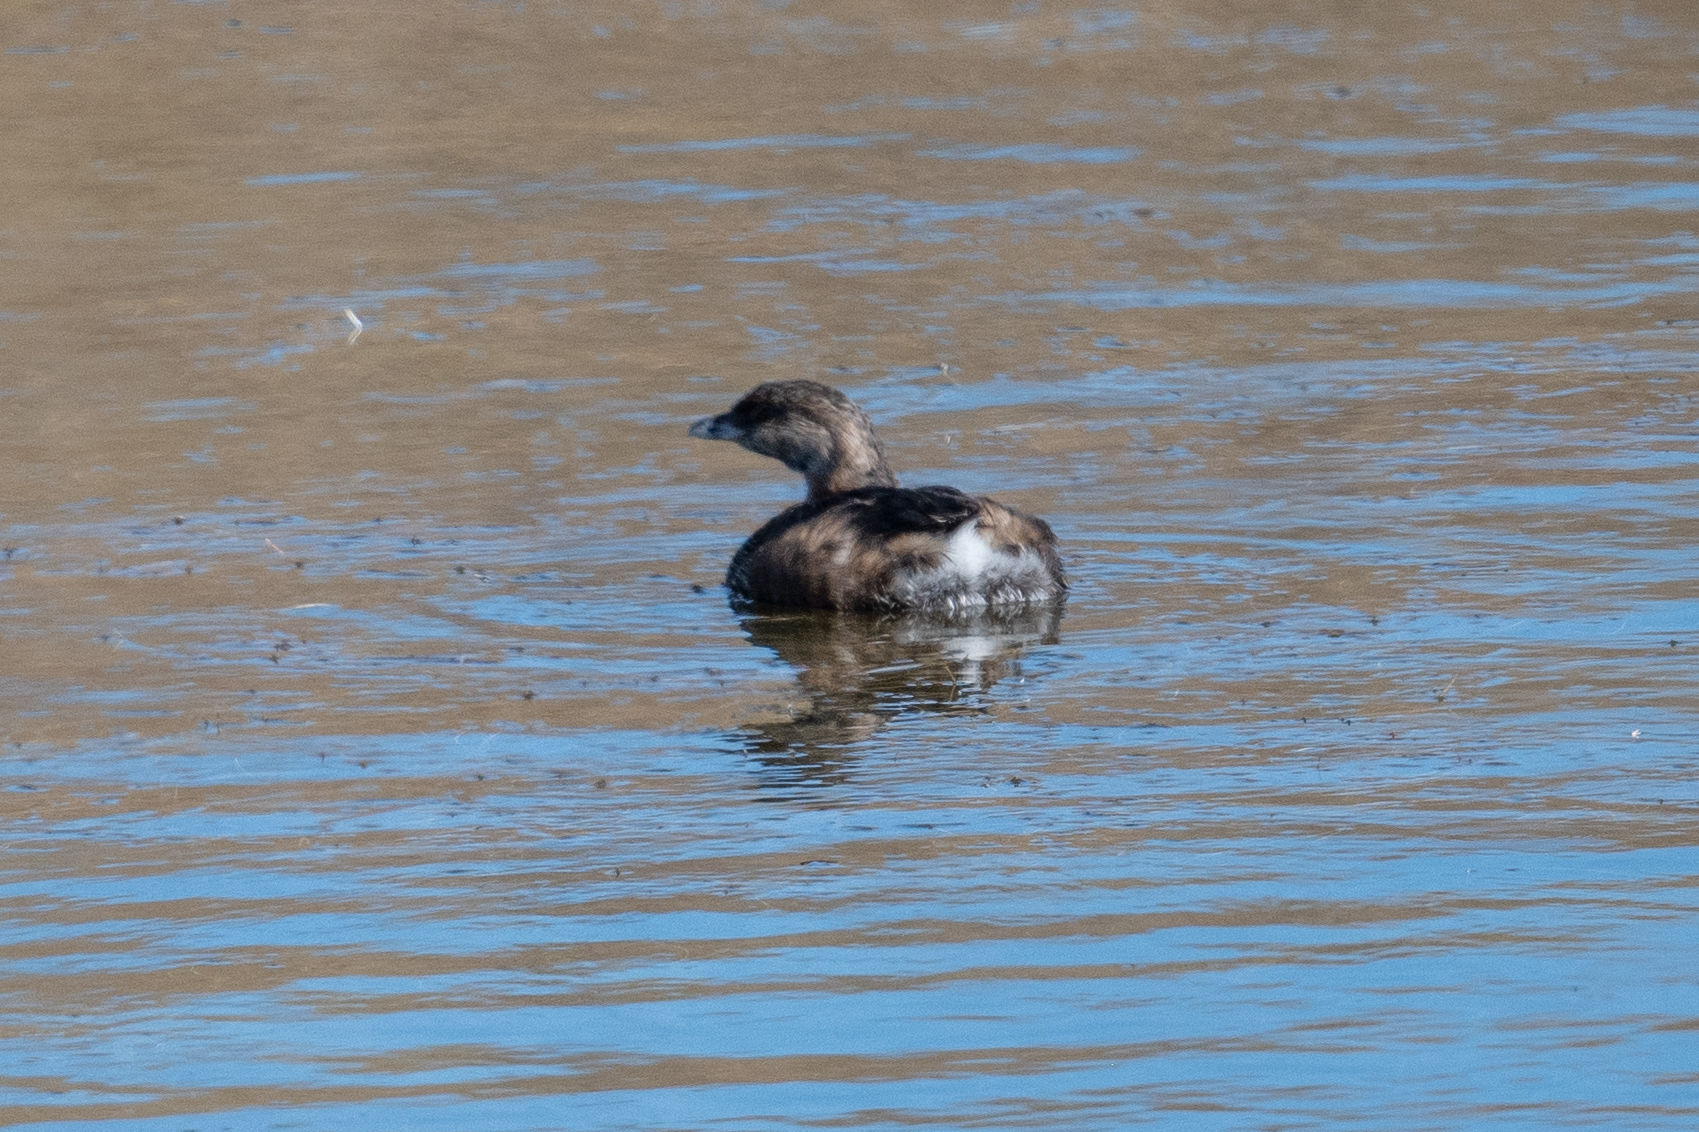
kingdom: Animalia
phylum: Chordata
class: Aves
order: Podicipediformes
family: Podicipedidae
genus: Podilymbus
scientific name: Podilymbus podiceps
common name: Pied-billed grebe
